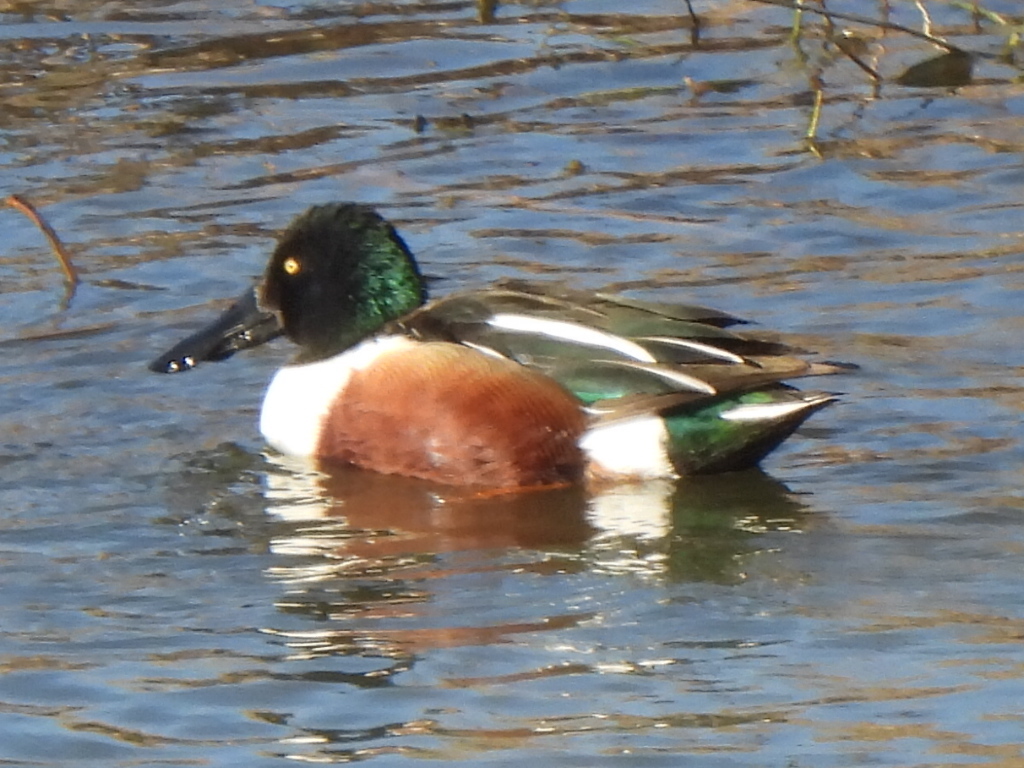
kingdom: Animalia
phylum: Chordata
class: Aves
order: Anseriformes
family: Anatidae
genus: Spatula
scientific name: Spatula clypeata
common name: Northern shoveler
